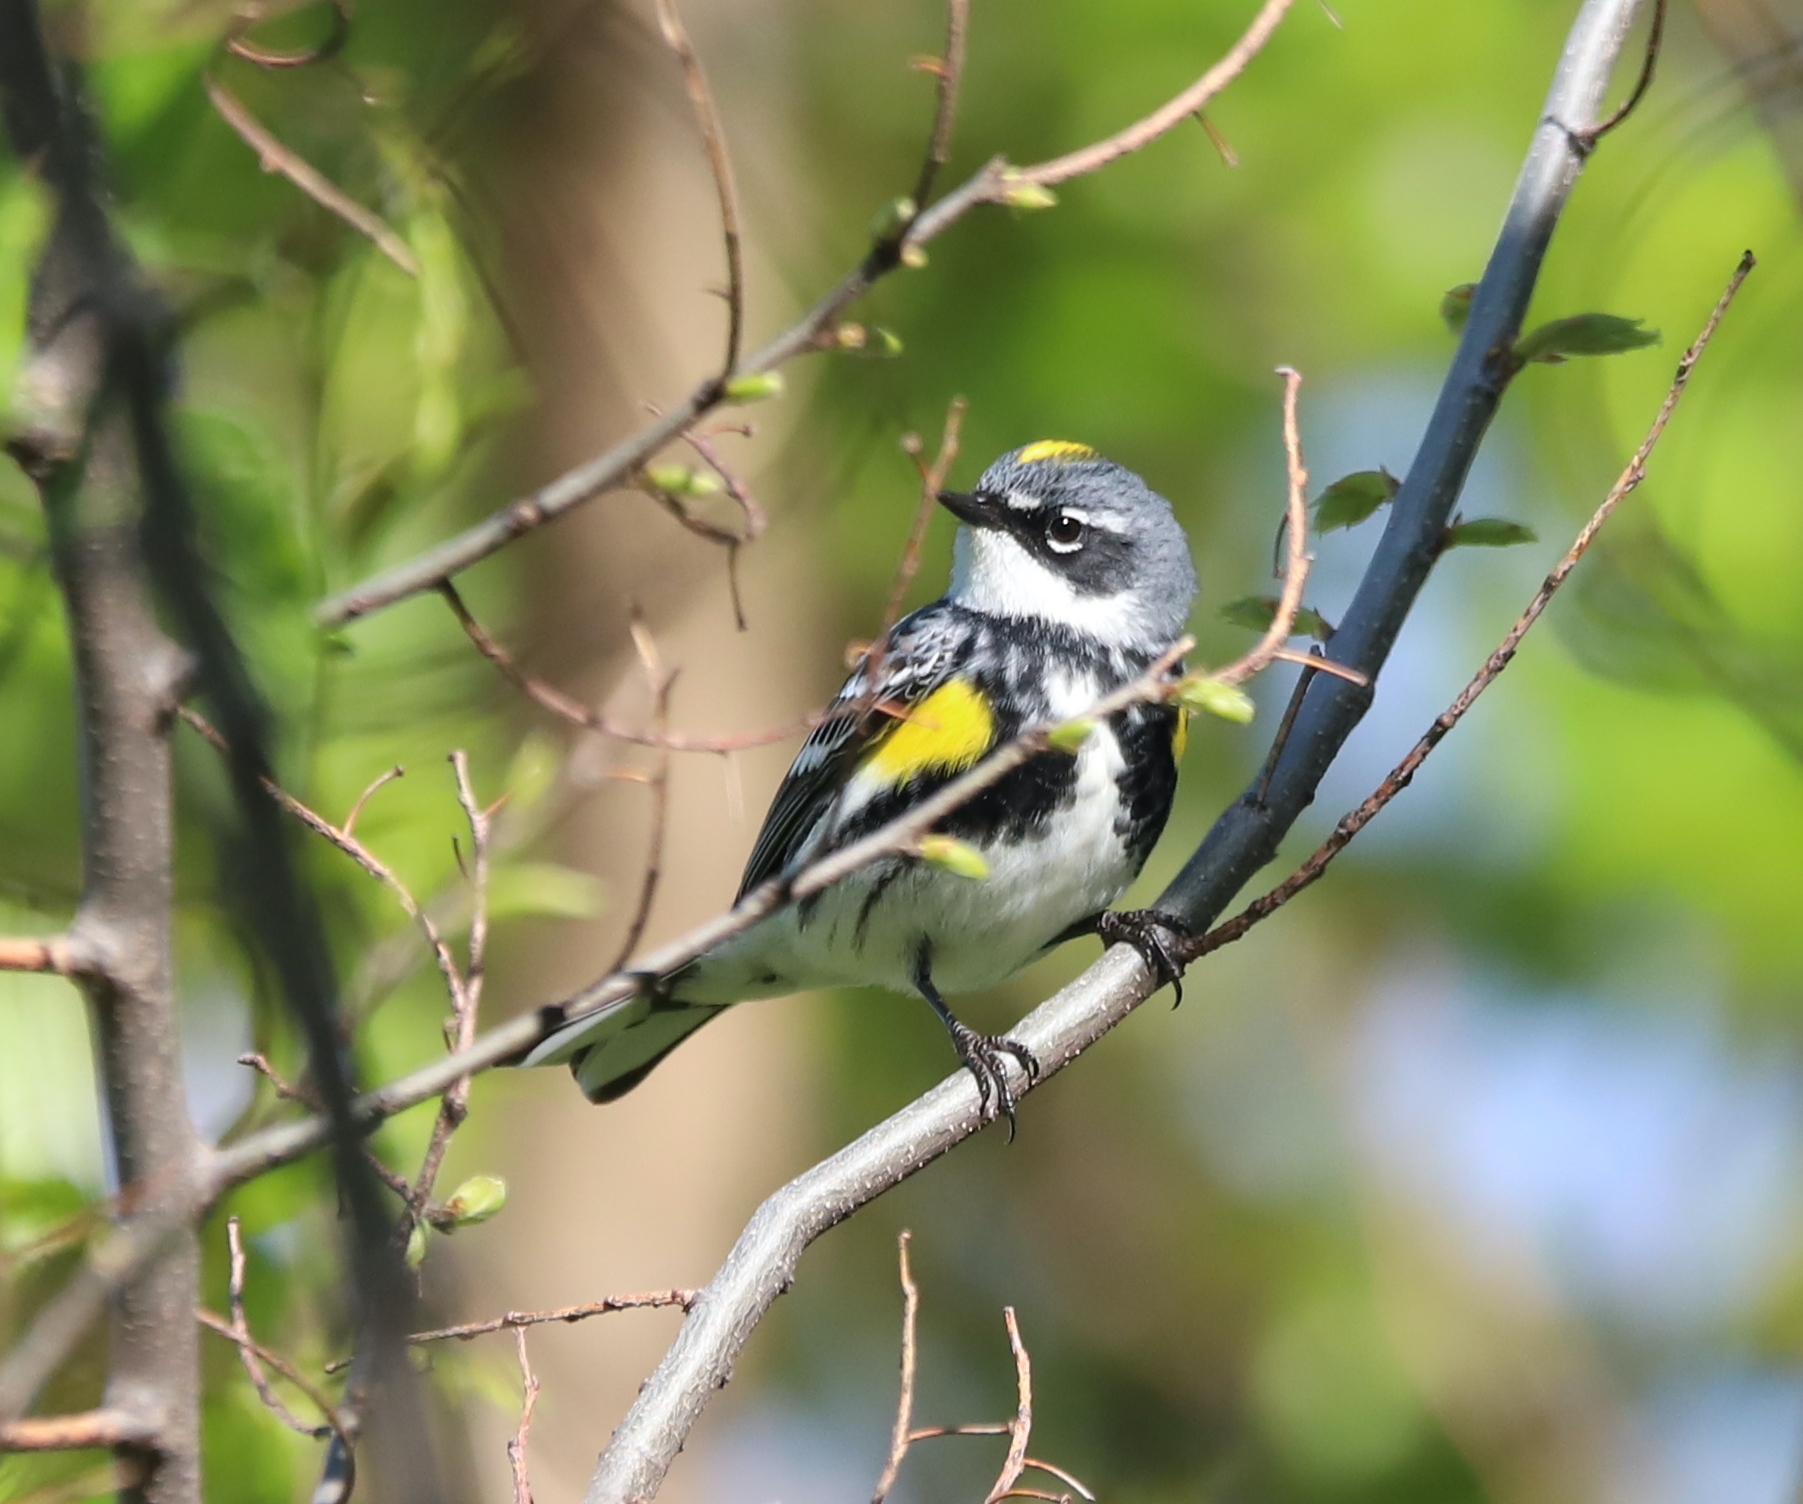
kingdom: Animalia
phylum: Chordata
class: Aves
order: Passeriformes
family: Parulidae
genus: Setophaga
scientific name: Setophaga coronata
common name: Myrtle warbler
